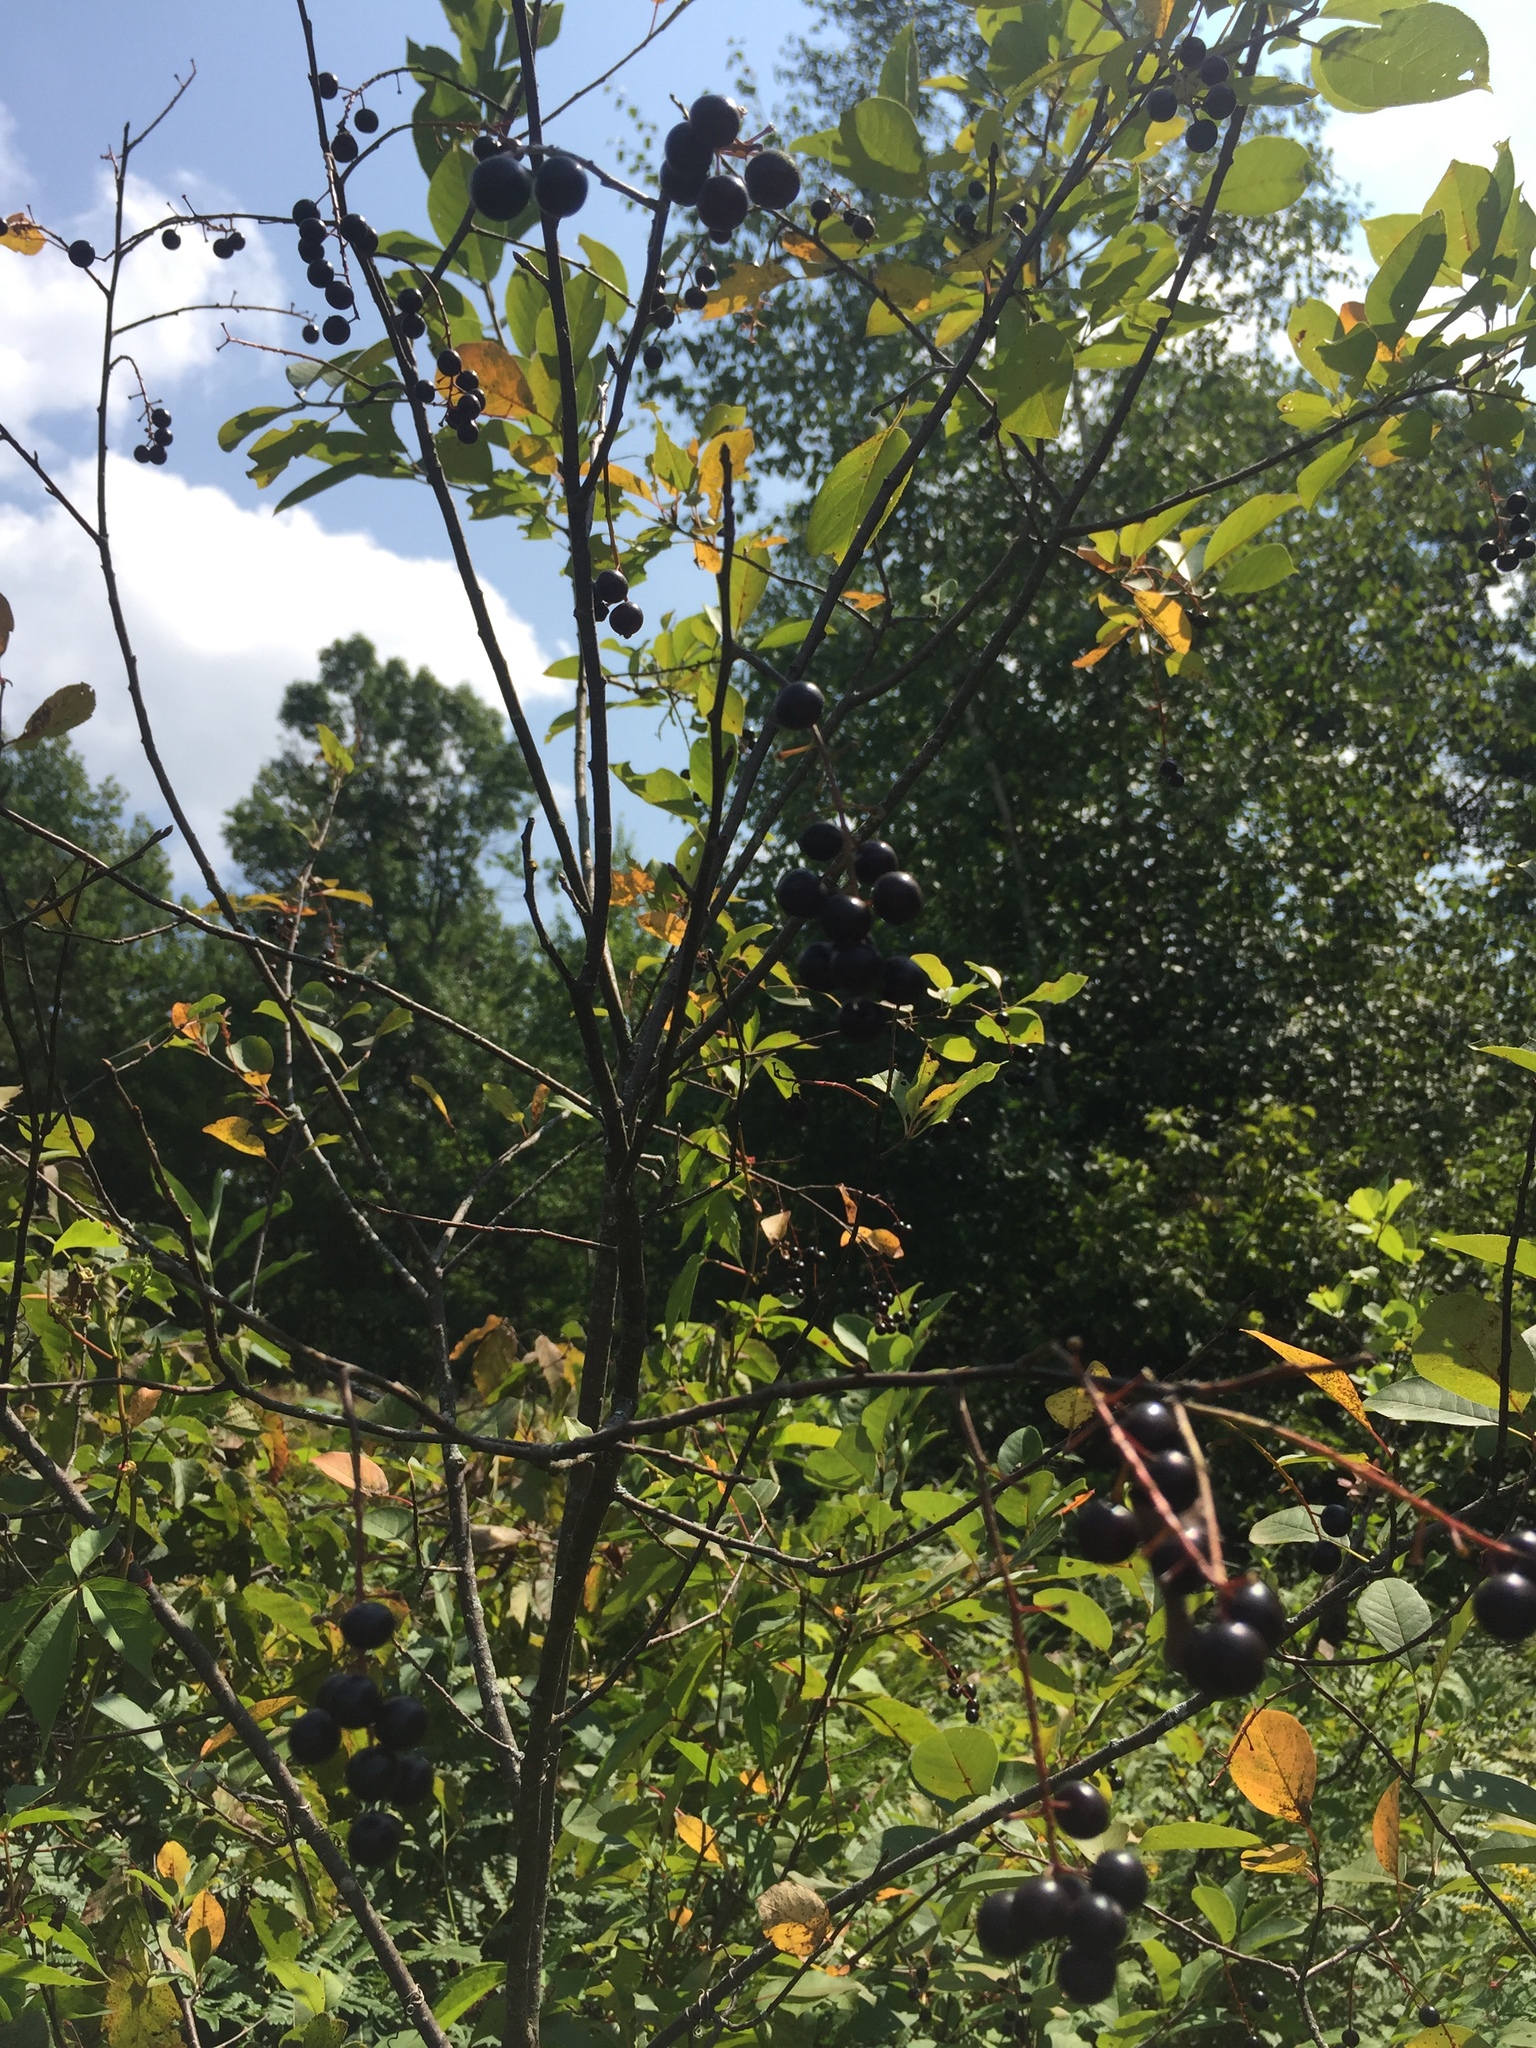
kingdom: Plantae
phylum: Tracheophyta
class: Magnoliopsida
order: Rosales
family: Rosaceae
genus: Prunus
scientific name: Prunus virginiana
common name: Chokecherry
